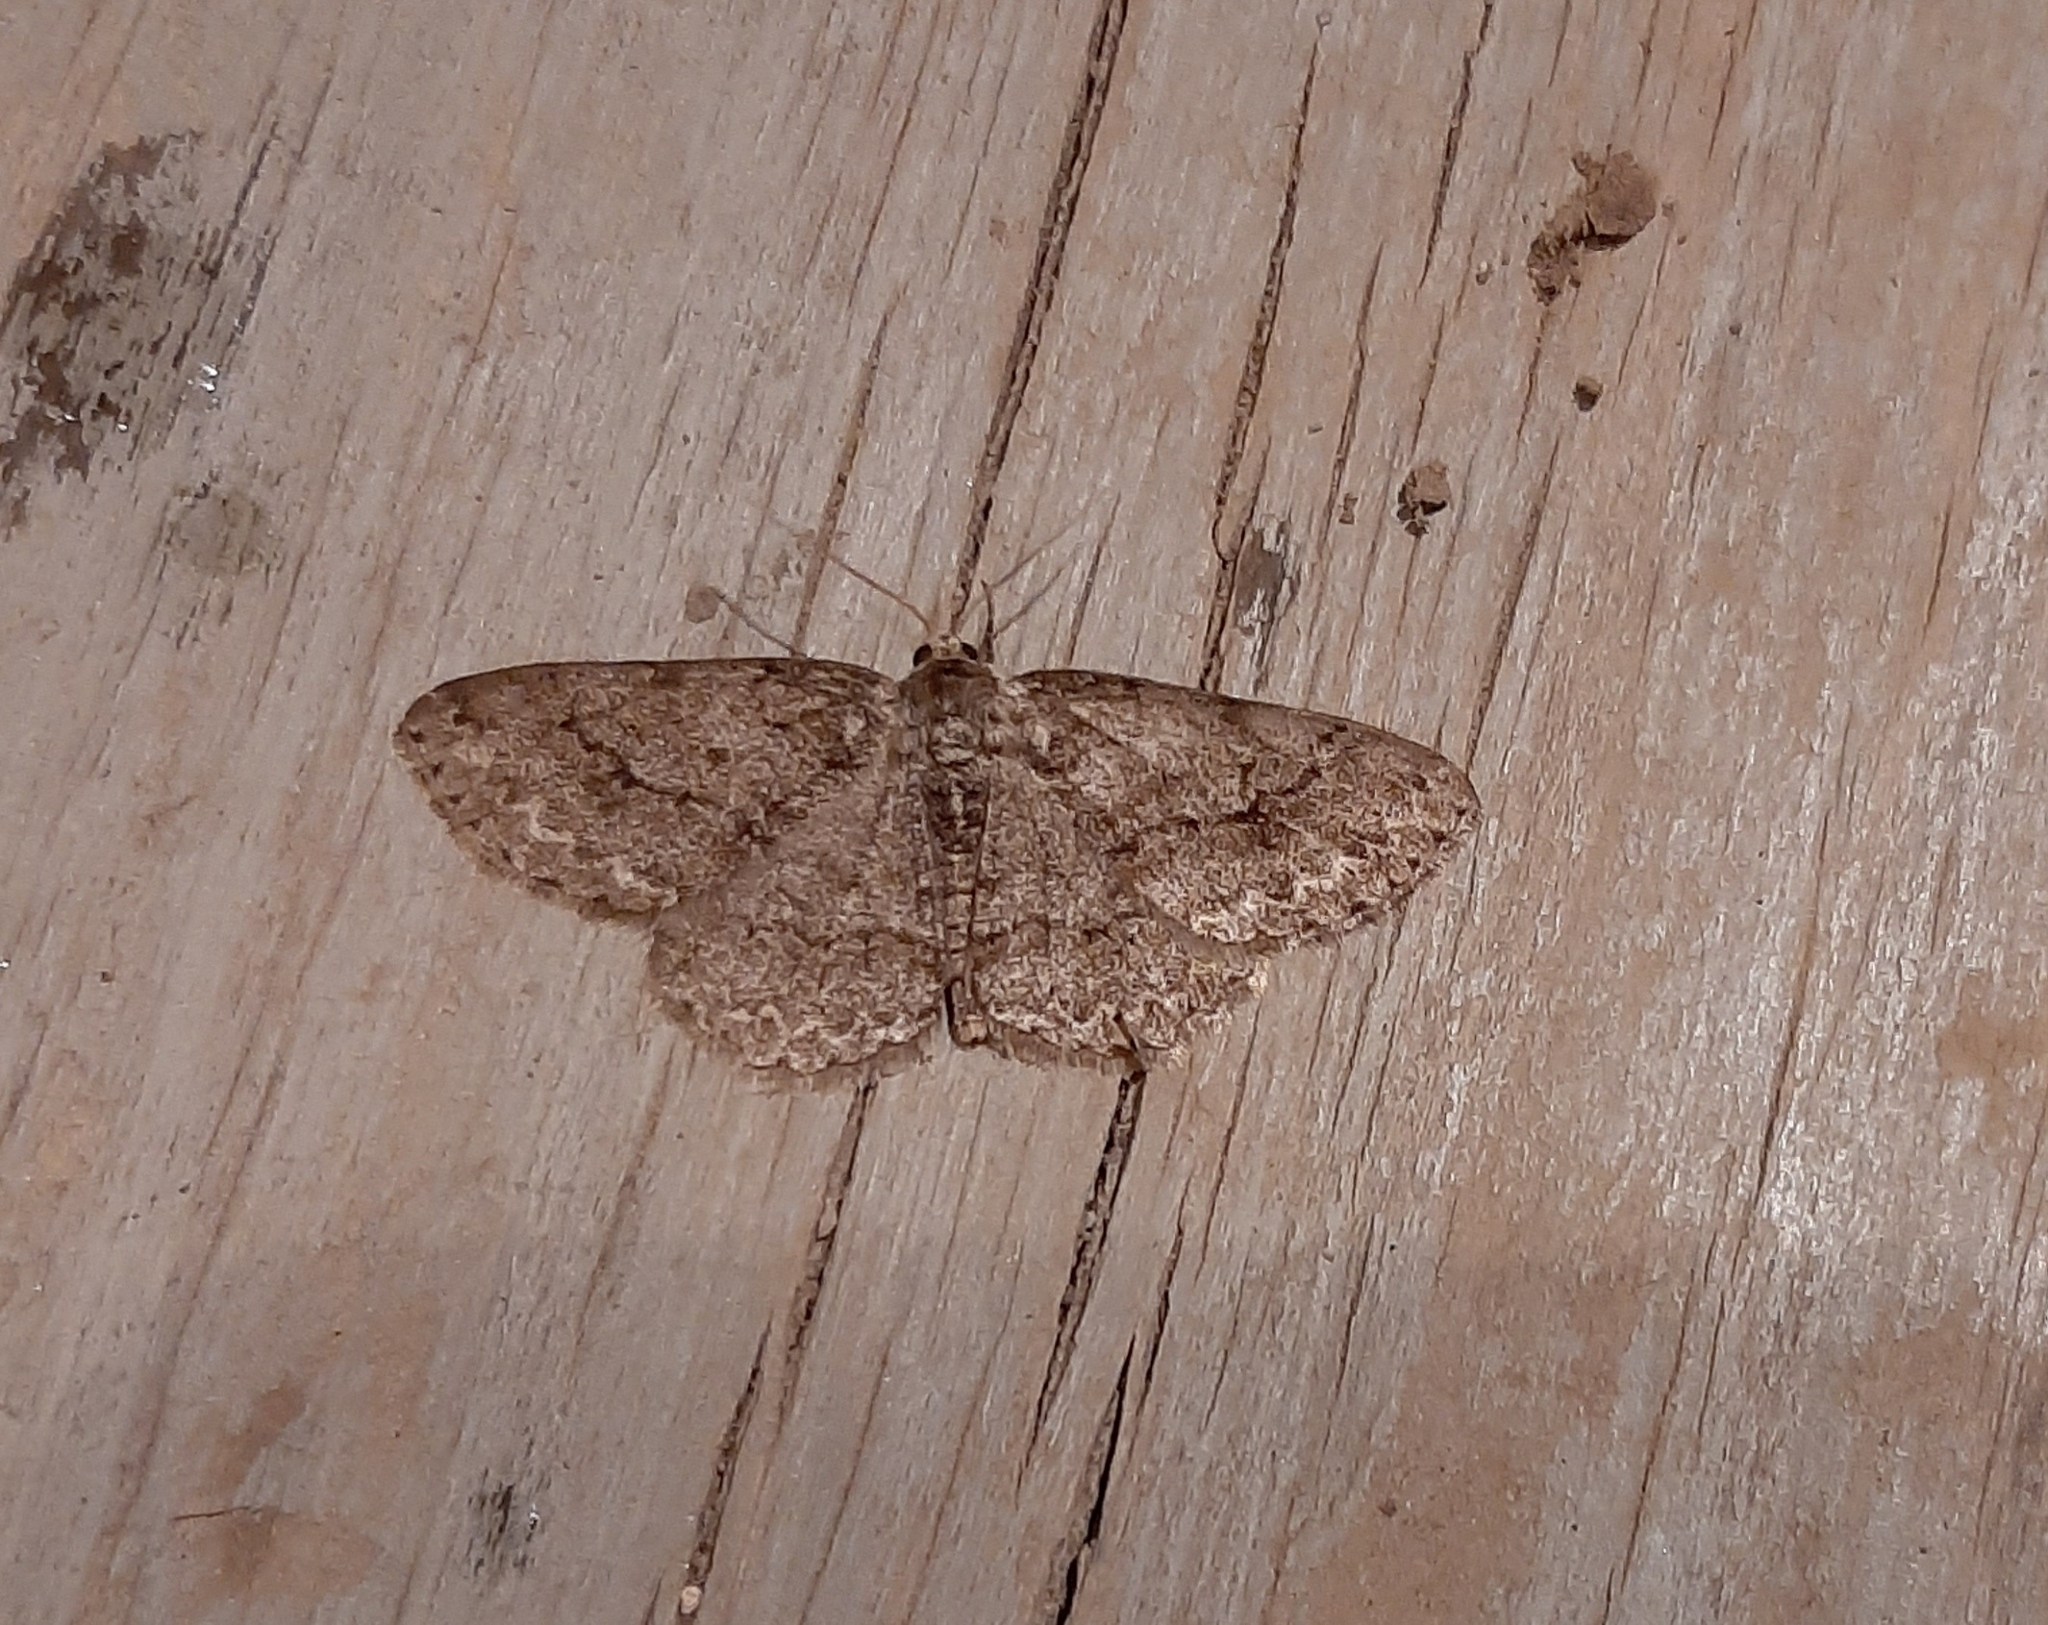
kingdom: Animalia
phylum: Arthropoda
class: Insecta
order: Lepidoptera
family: Geometridae
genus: Ectropis
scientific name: Ectropis crepuscularia
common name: Engrailed
